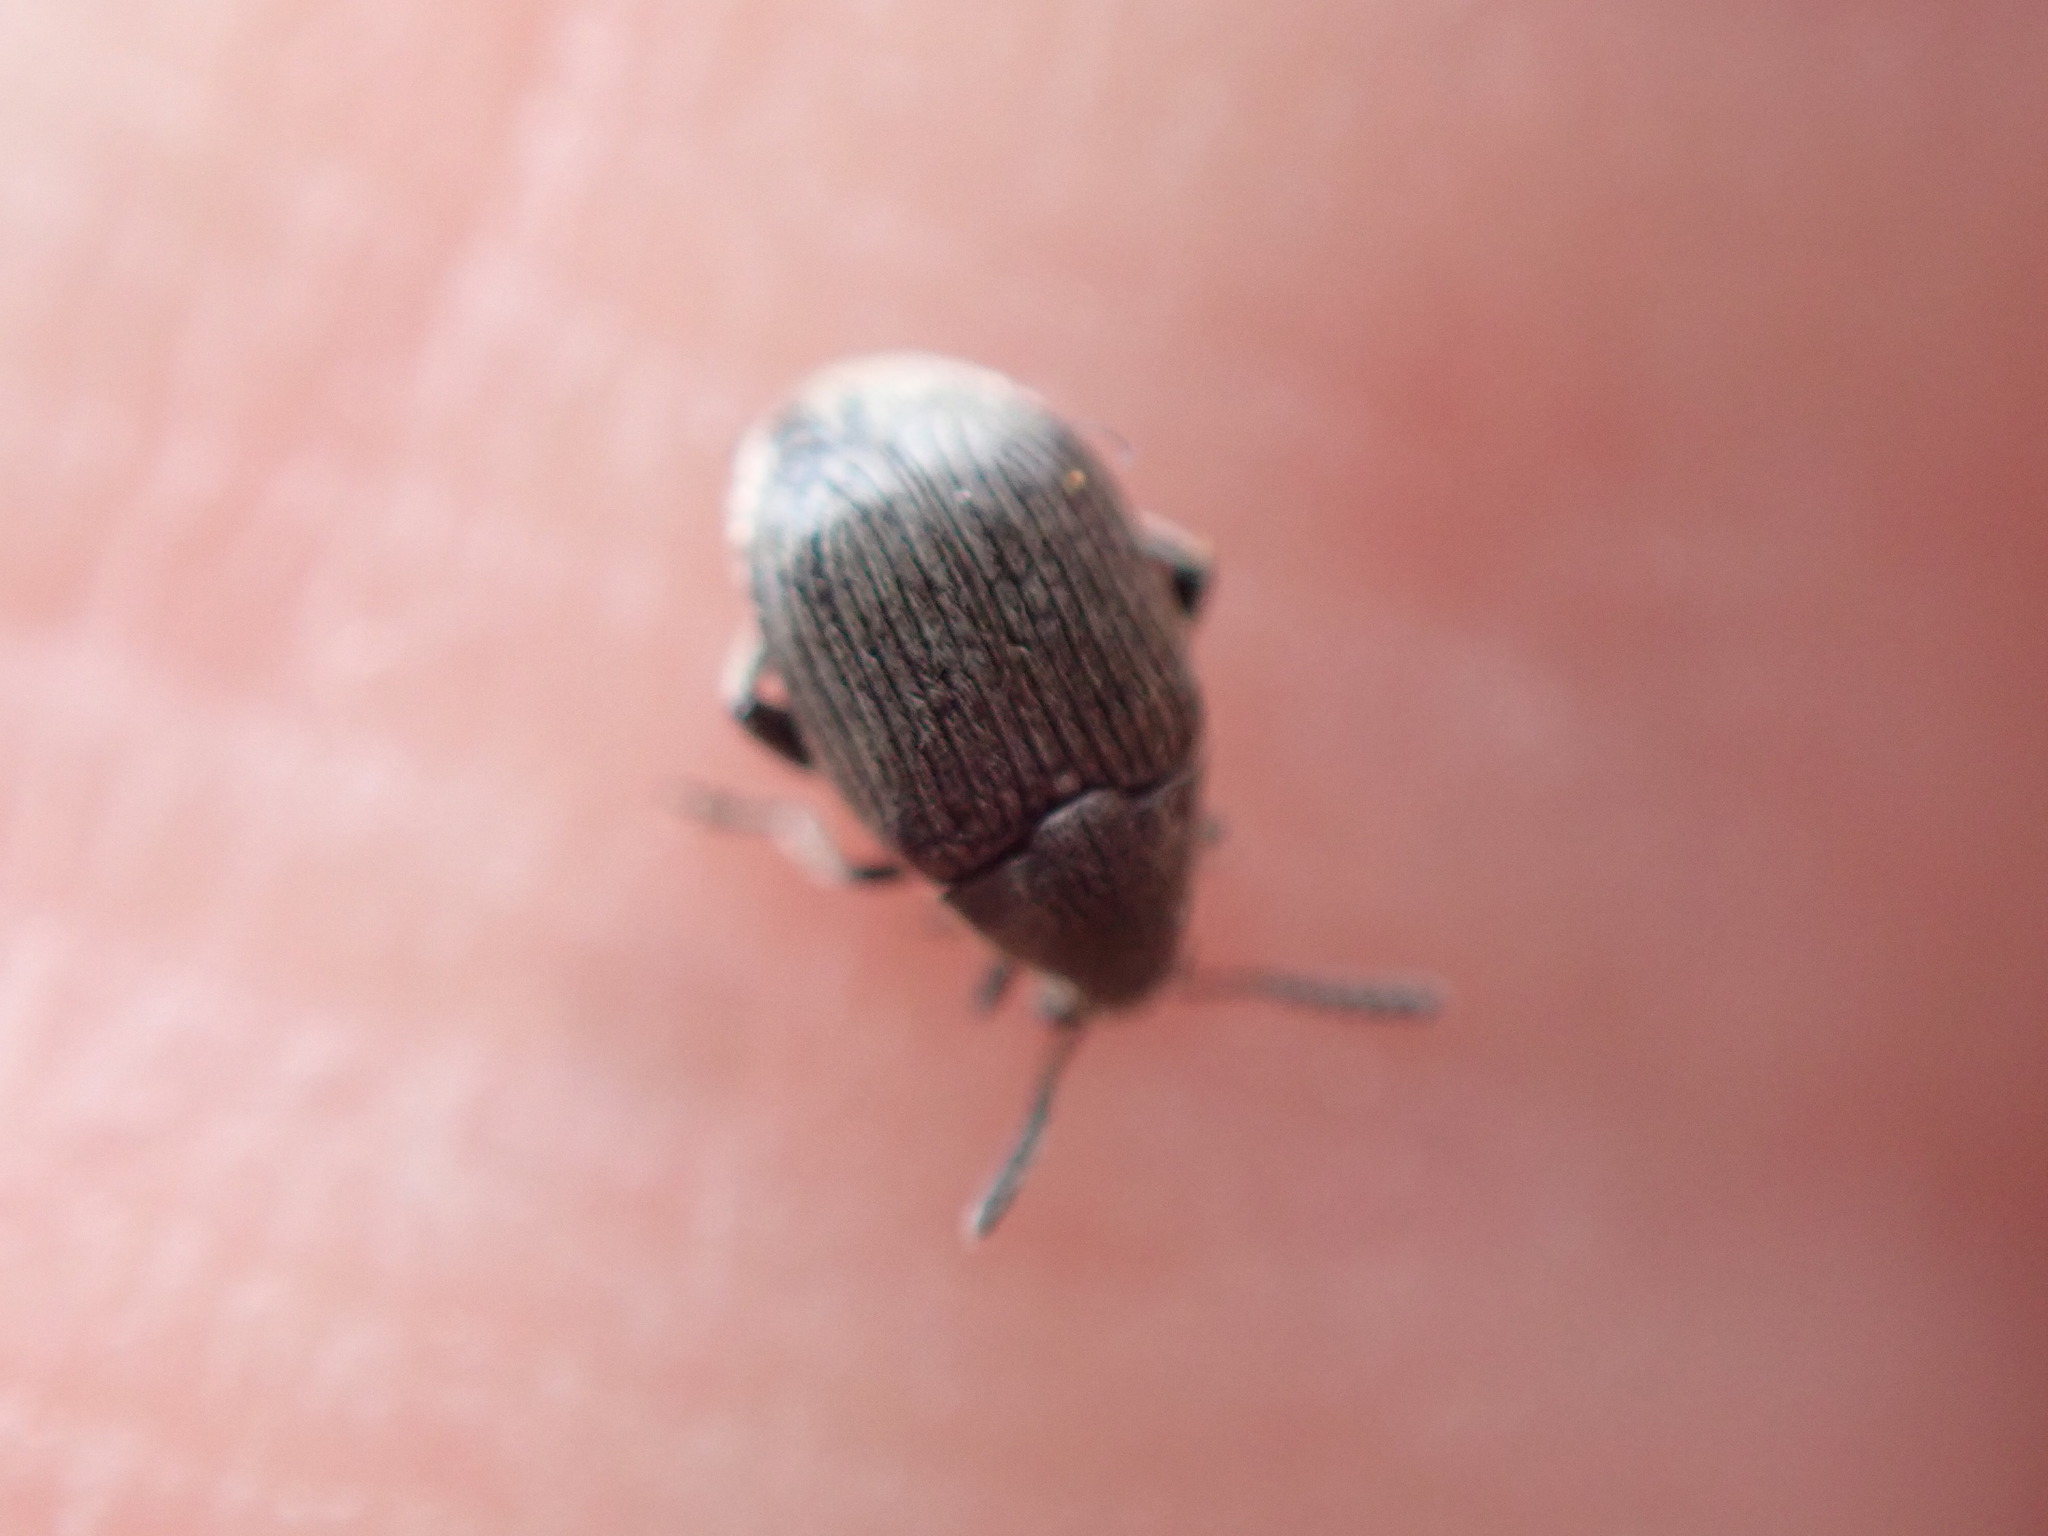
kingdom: Animalia
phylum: Arthropoda
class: Insecta
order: Coleoptera
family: Chrysomelidae
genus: Bruchidius
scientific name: Bruchidius villosus
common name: Scotch broom bruchid
